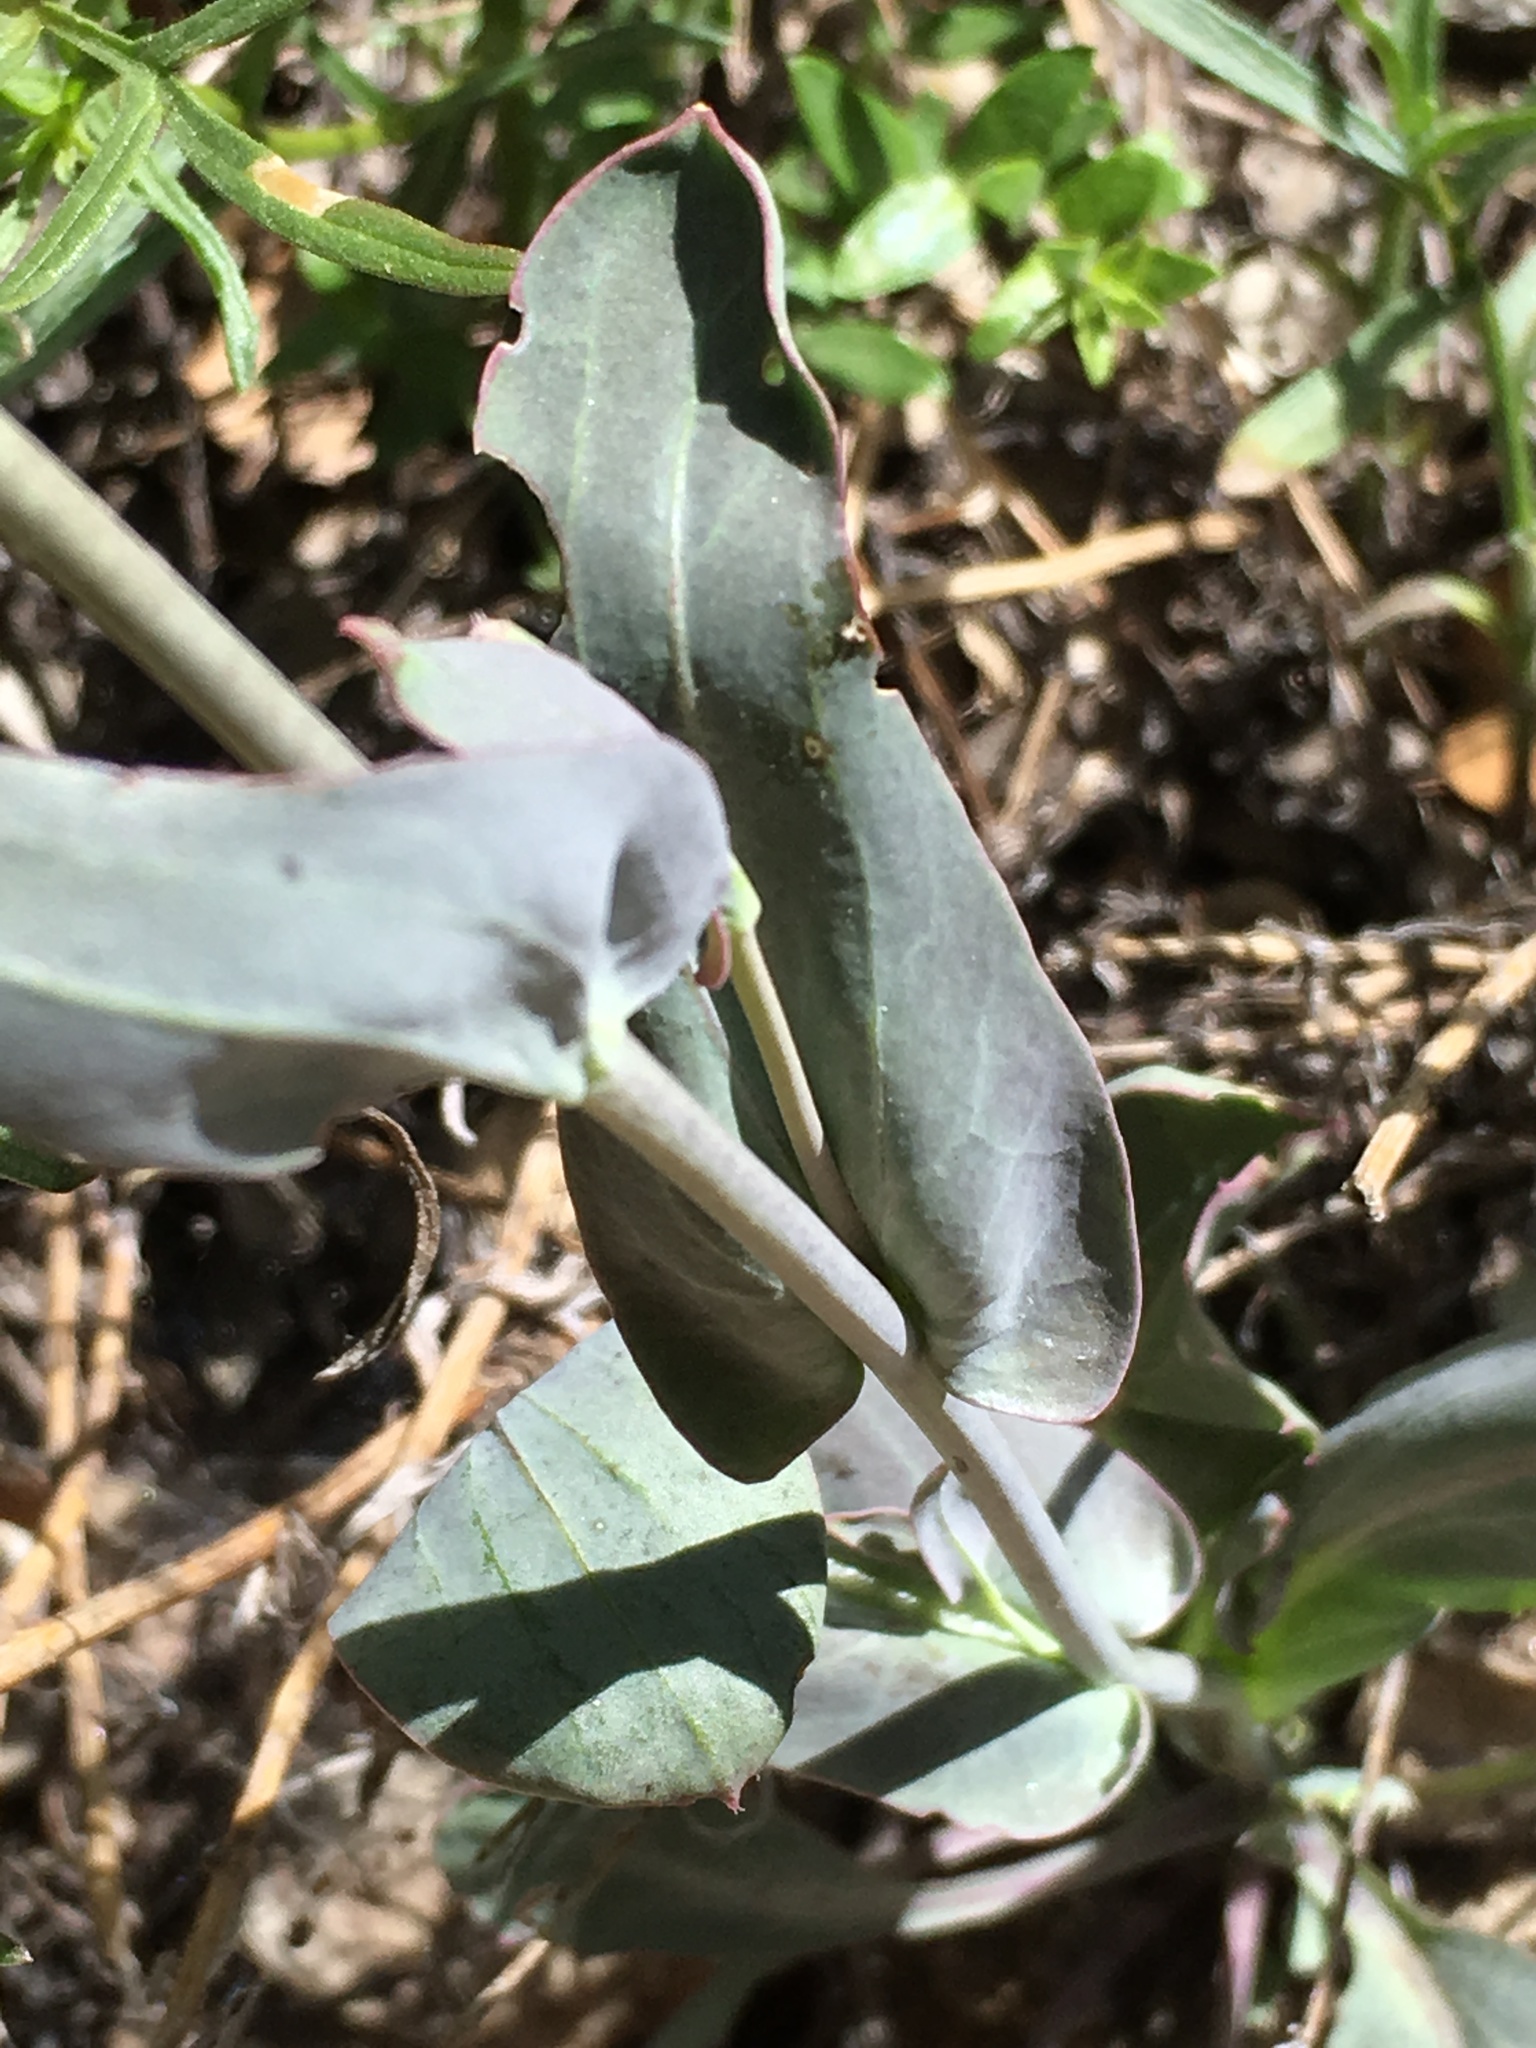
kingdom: Plantae
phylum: Tracheophyta
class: Magnoliopsida
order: Brassicales
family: Brassicaceae
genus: Streptanthus
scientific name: Streptanthus cordatus
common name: Heart-leaf jewel-flower
